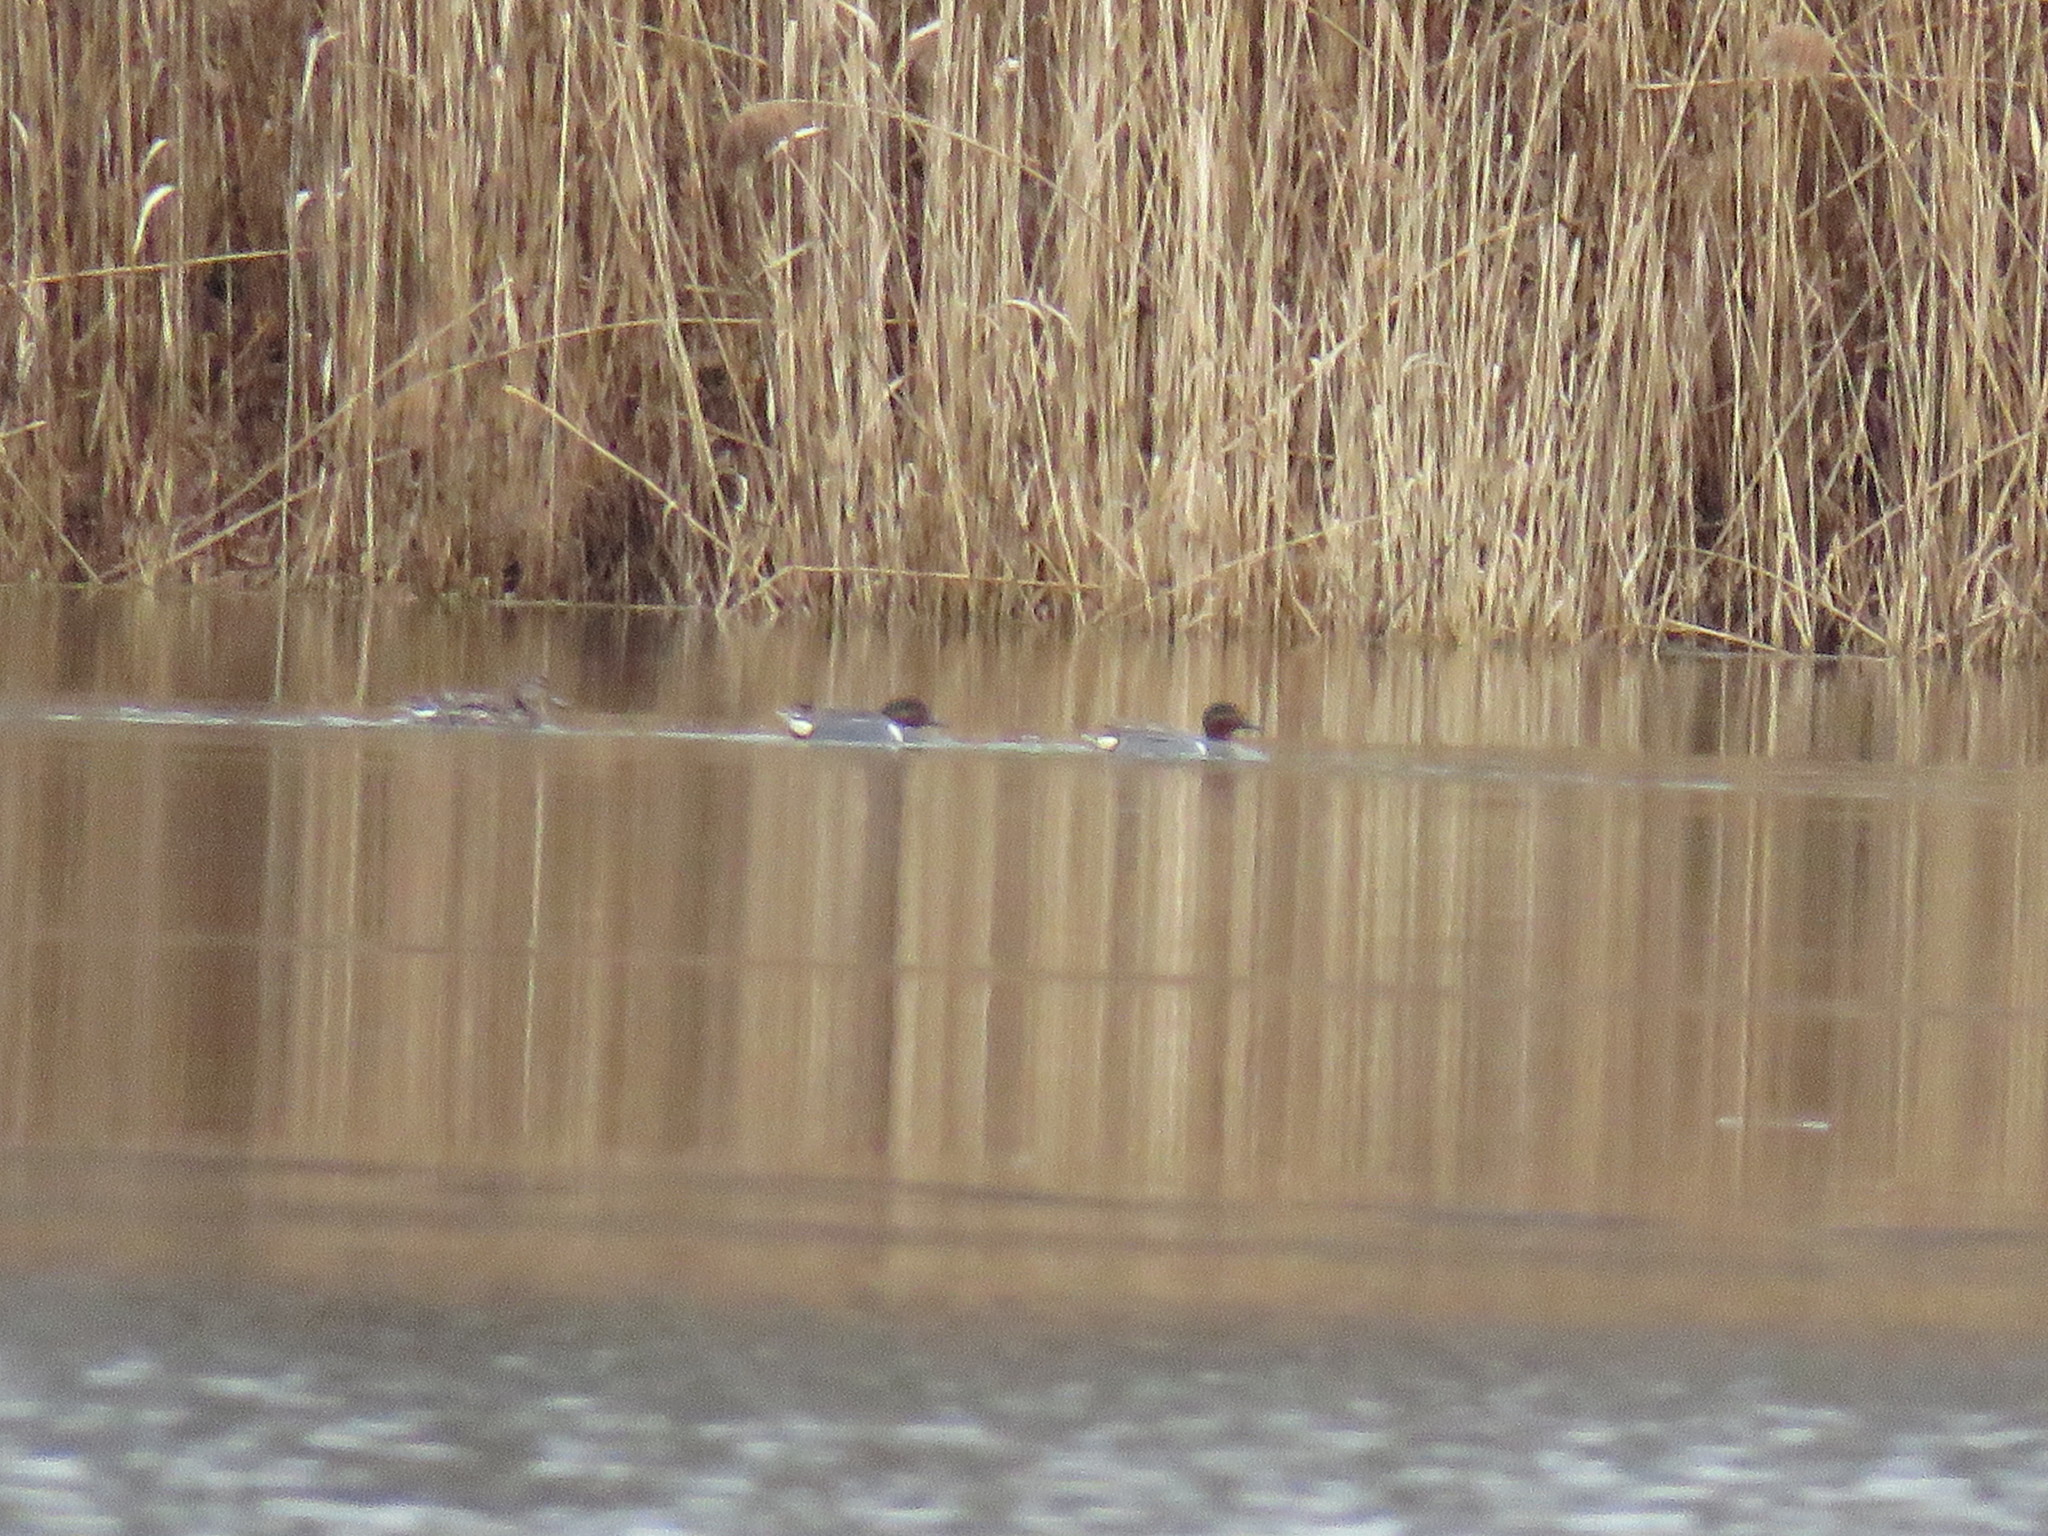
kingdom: Animalia
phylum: Chordata
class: Aves
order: Anseriformes
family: Anatidae
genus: Anas
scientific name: Anas crecca
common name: Eurasian teal
